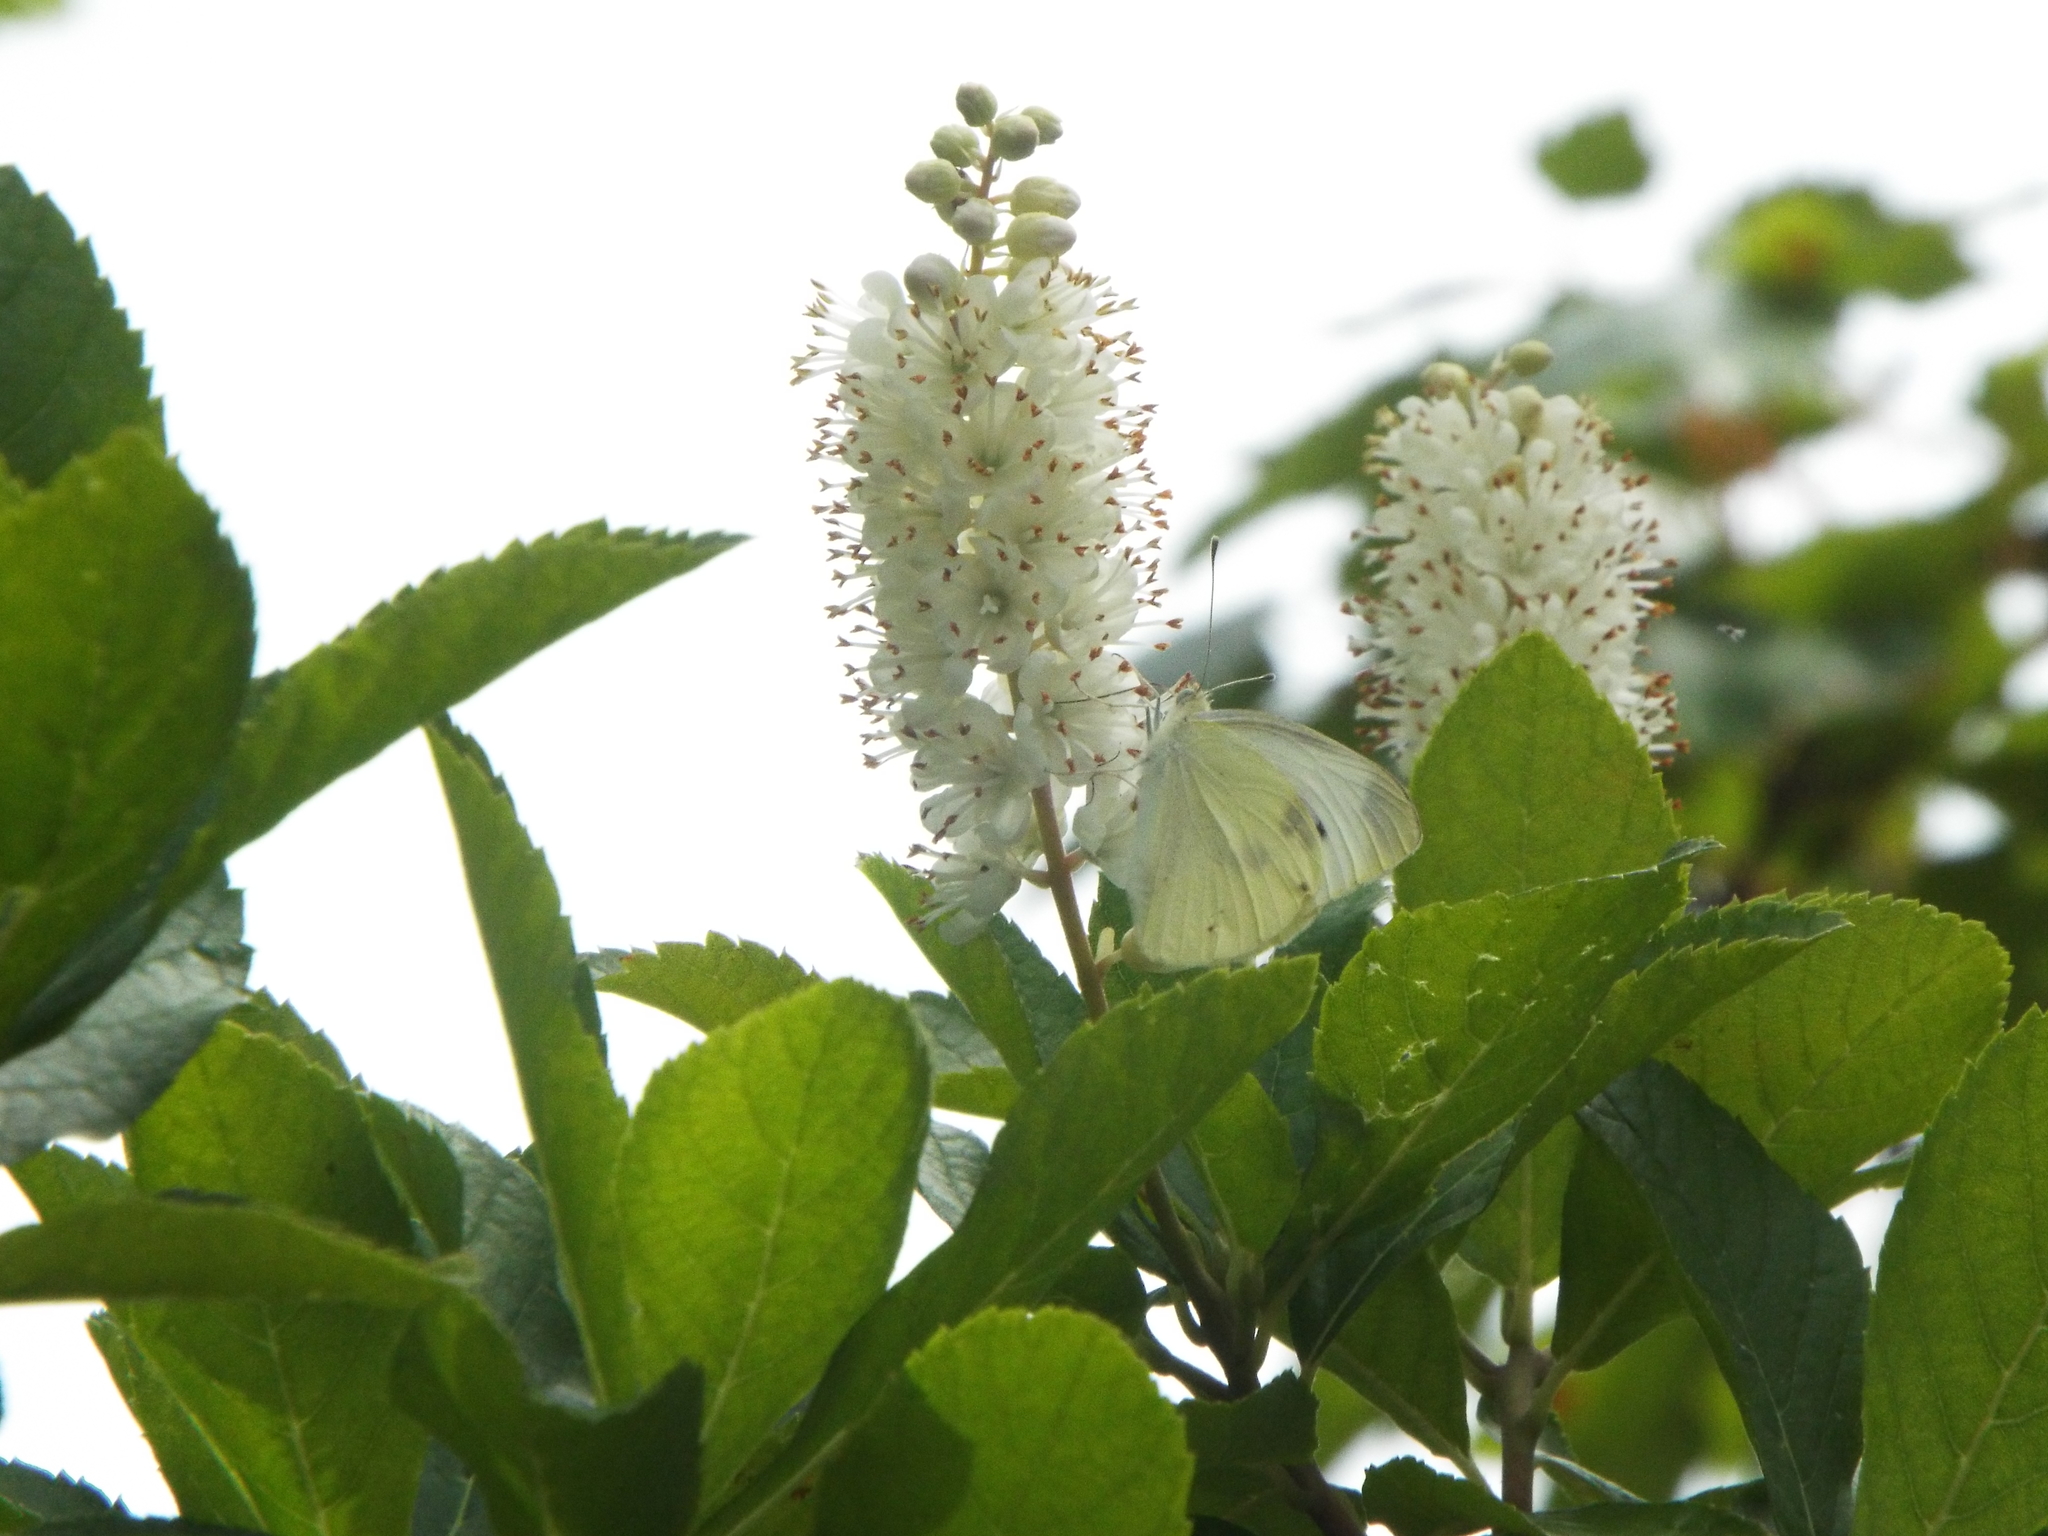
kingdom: Animalia
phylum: Arthropoda
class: Insecta
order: Lepidoptera
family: Pieridae
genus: Pieris
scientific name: Pieris rapae
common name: Small white
